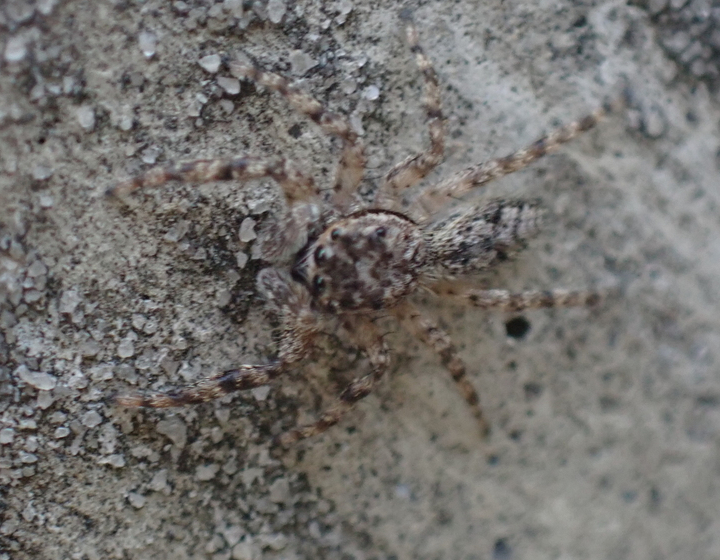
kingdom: Animalia
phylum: Arthropoda
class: Arachnida
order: Araneae
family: Salticidae
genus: Platycryptus
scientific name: Platycryptus undatus
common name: Tan jumping spider
